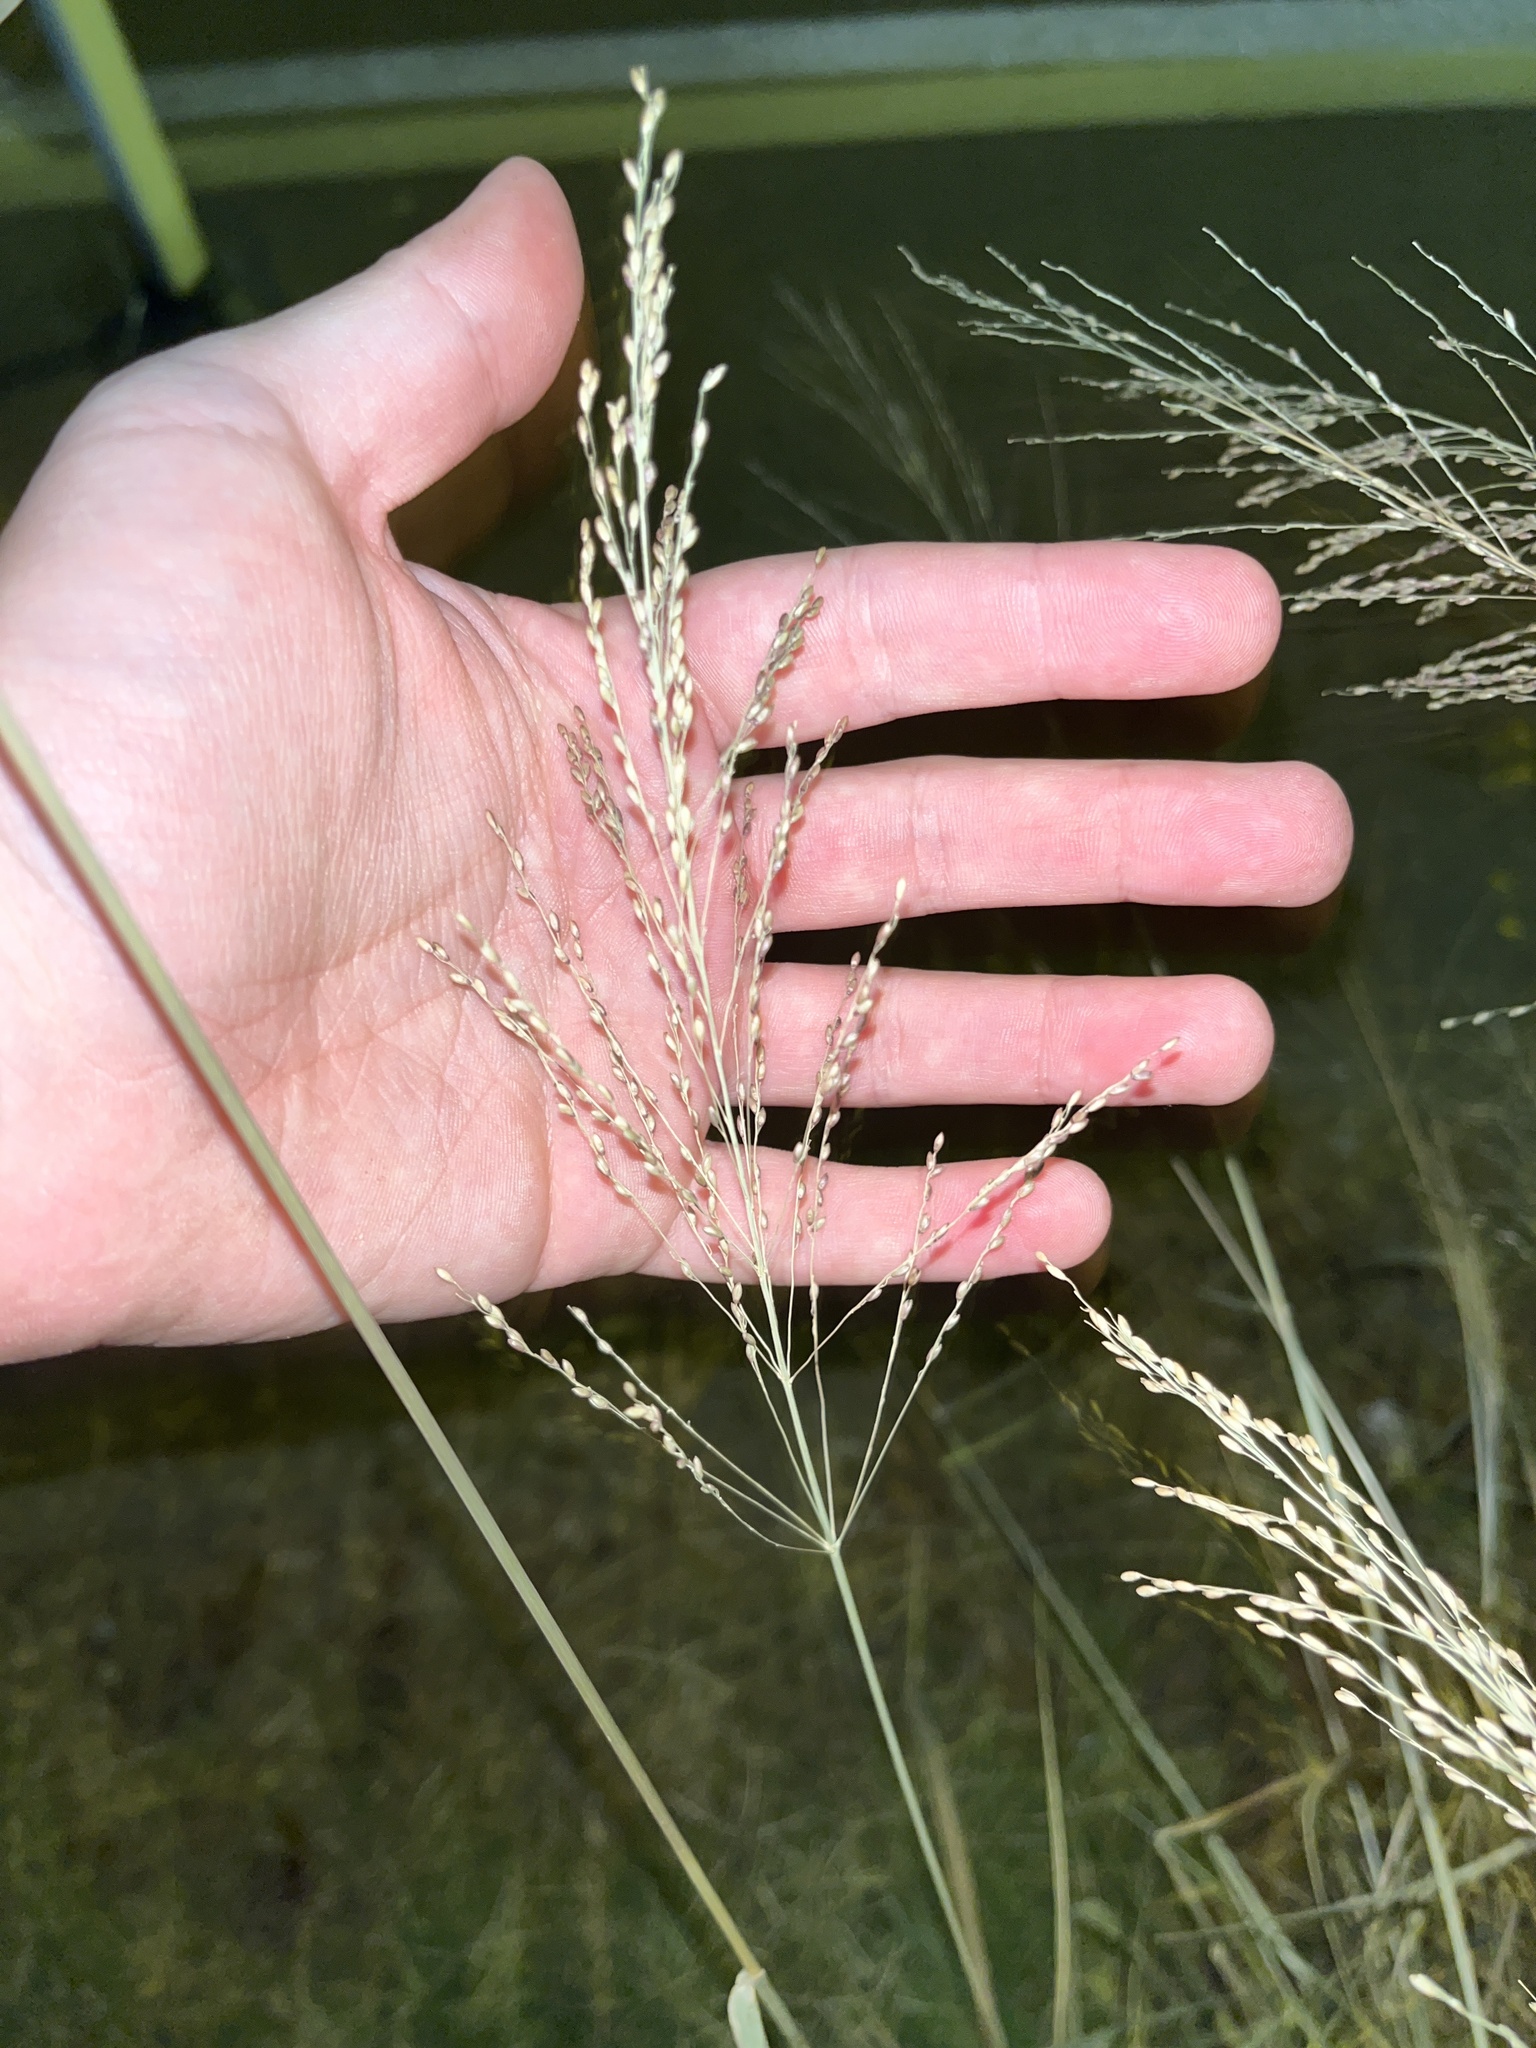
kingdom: Plantae
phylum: Tracheophyta
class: Liliopsida
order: Poales
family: Poaceae
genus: Megathyrsus
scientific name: Megathyrsus maximus
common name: Guineagrass
